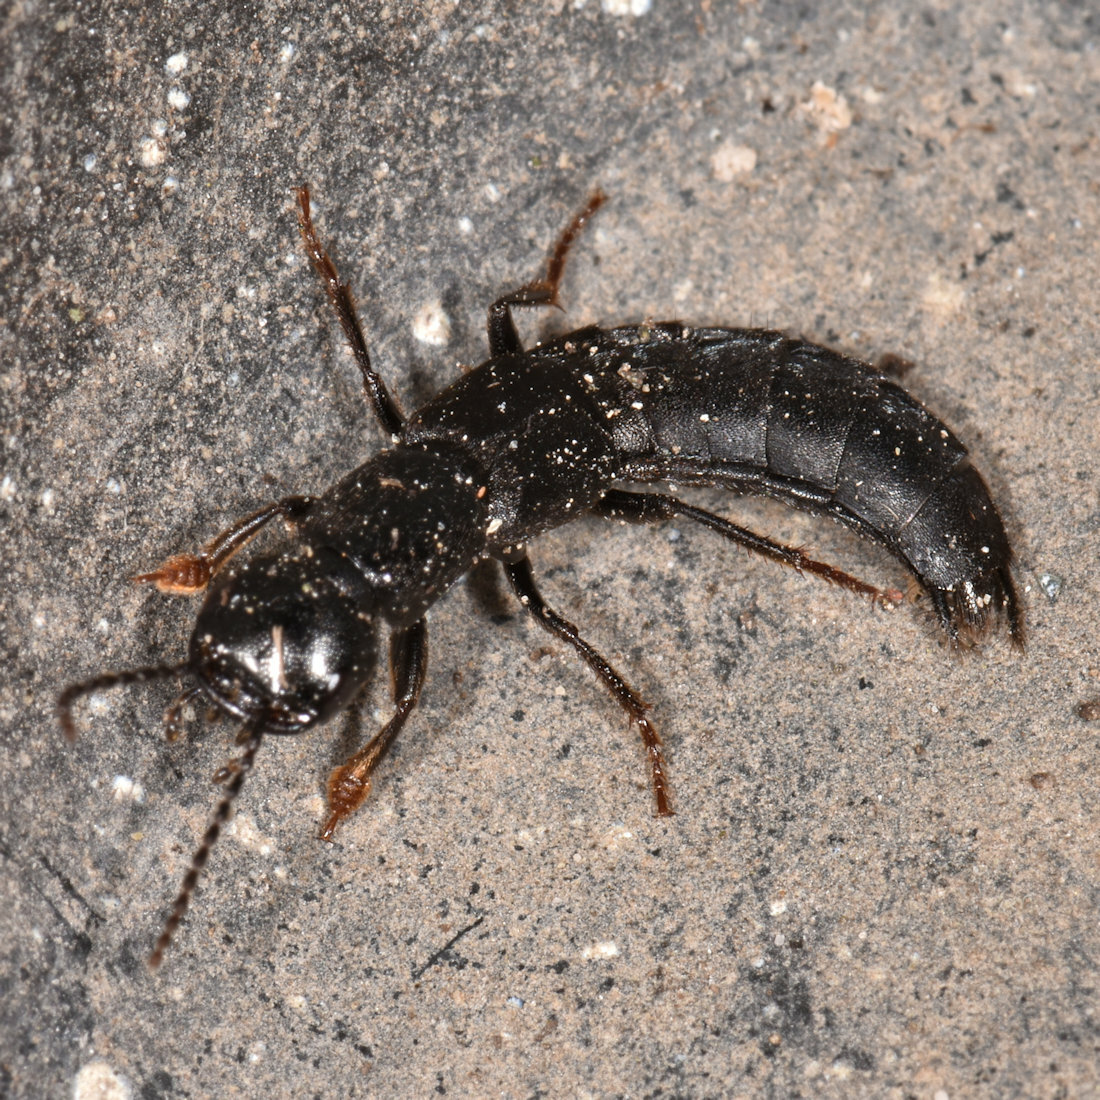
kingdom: Animalia
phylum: Arthropoda
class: Insecta
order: Coleoptera
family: Staphylinidae
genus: Tasgius
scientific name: Tasgius melanarius
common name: Rove beetle
